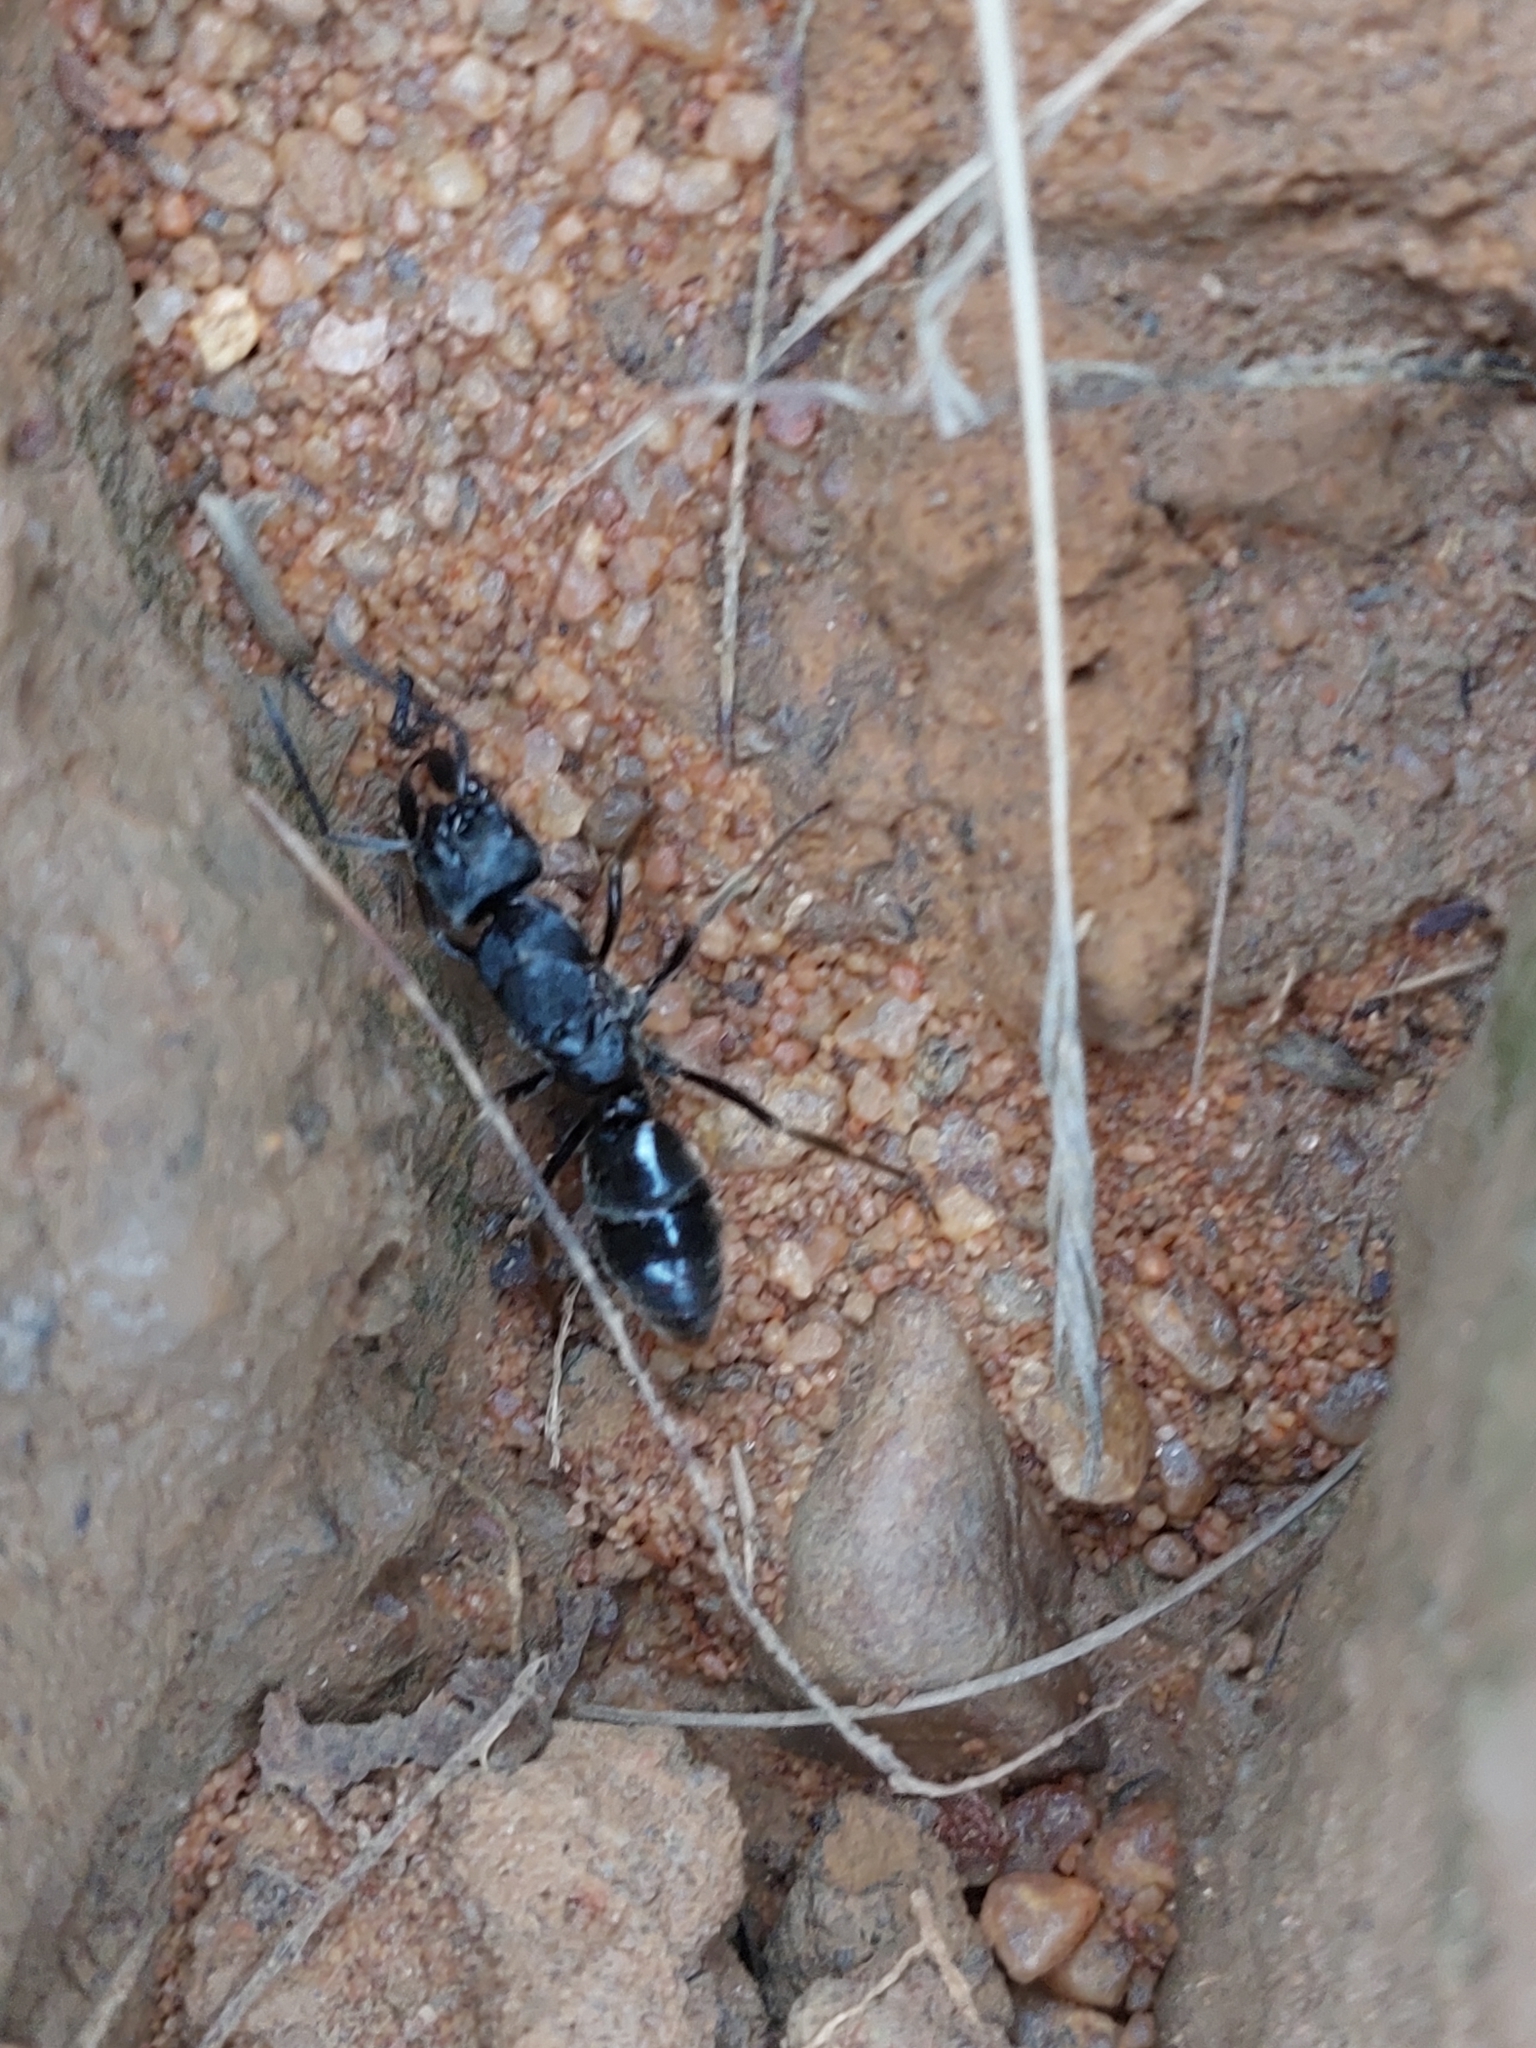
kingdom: Animalia
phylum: Arthropoda
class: Insecta
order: Hymenoptera
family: Formicidae
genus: Paltothyreus
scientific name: Paltothyreus tarsatus
